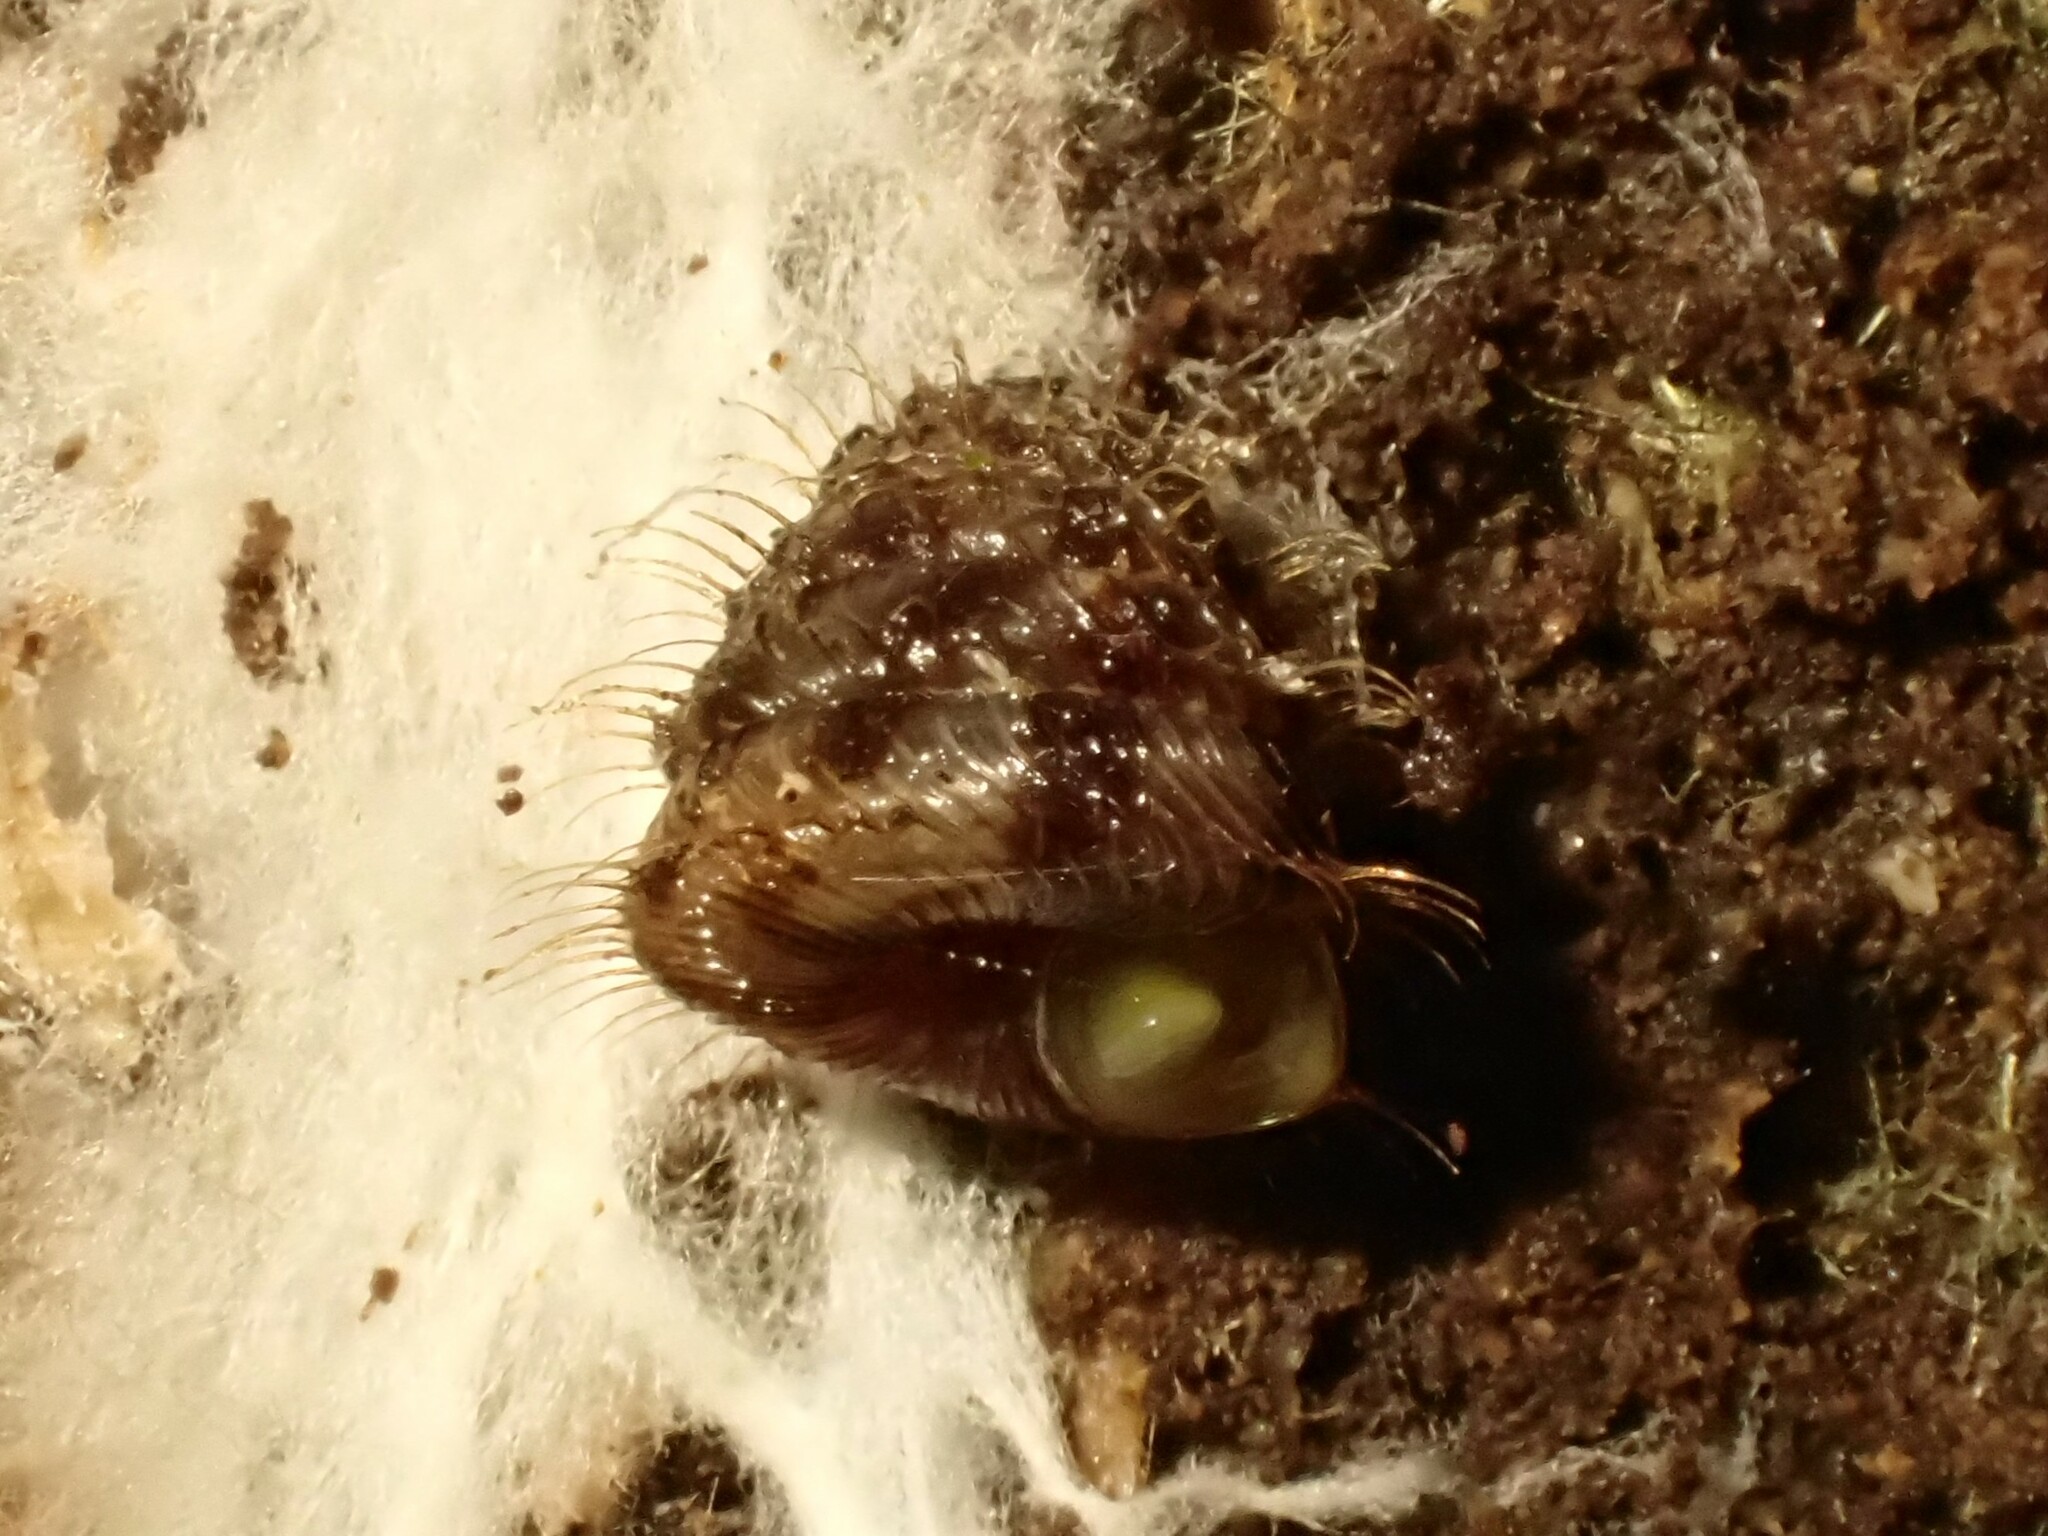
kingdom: Animalia
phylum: Mollusca
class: Gastropoda
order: Stylommatophora
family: Charopidae
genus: Aeschrodomus
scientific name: Aeschrodomus stipulata
